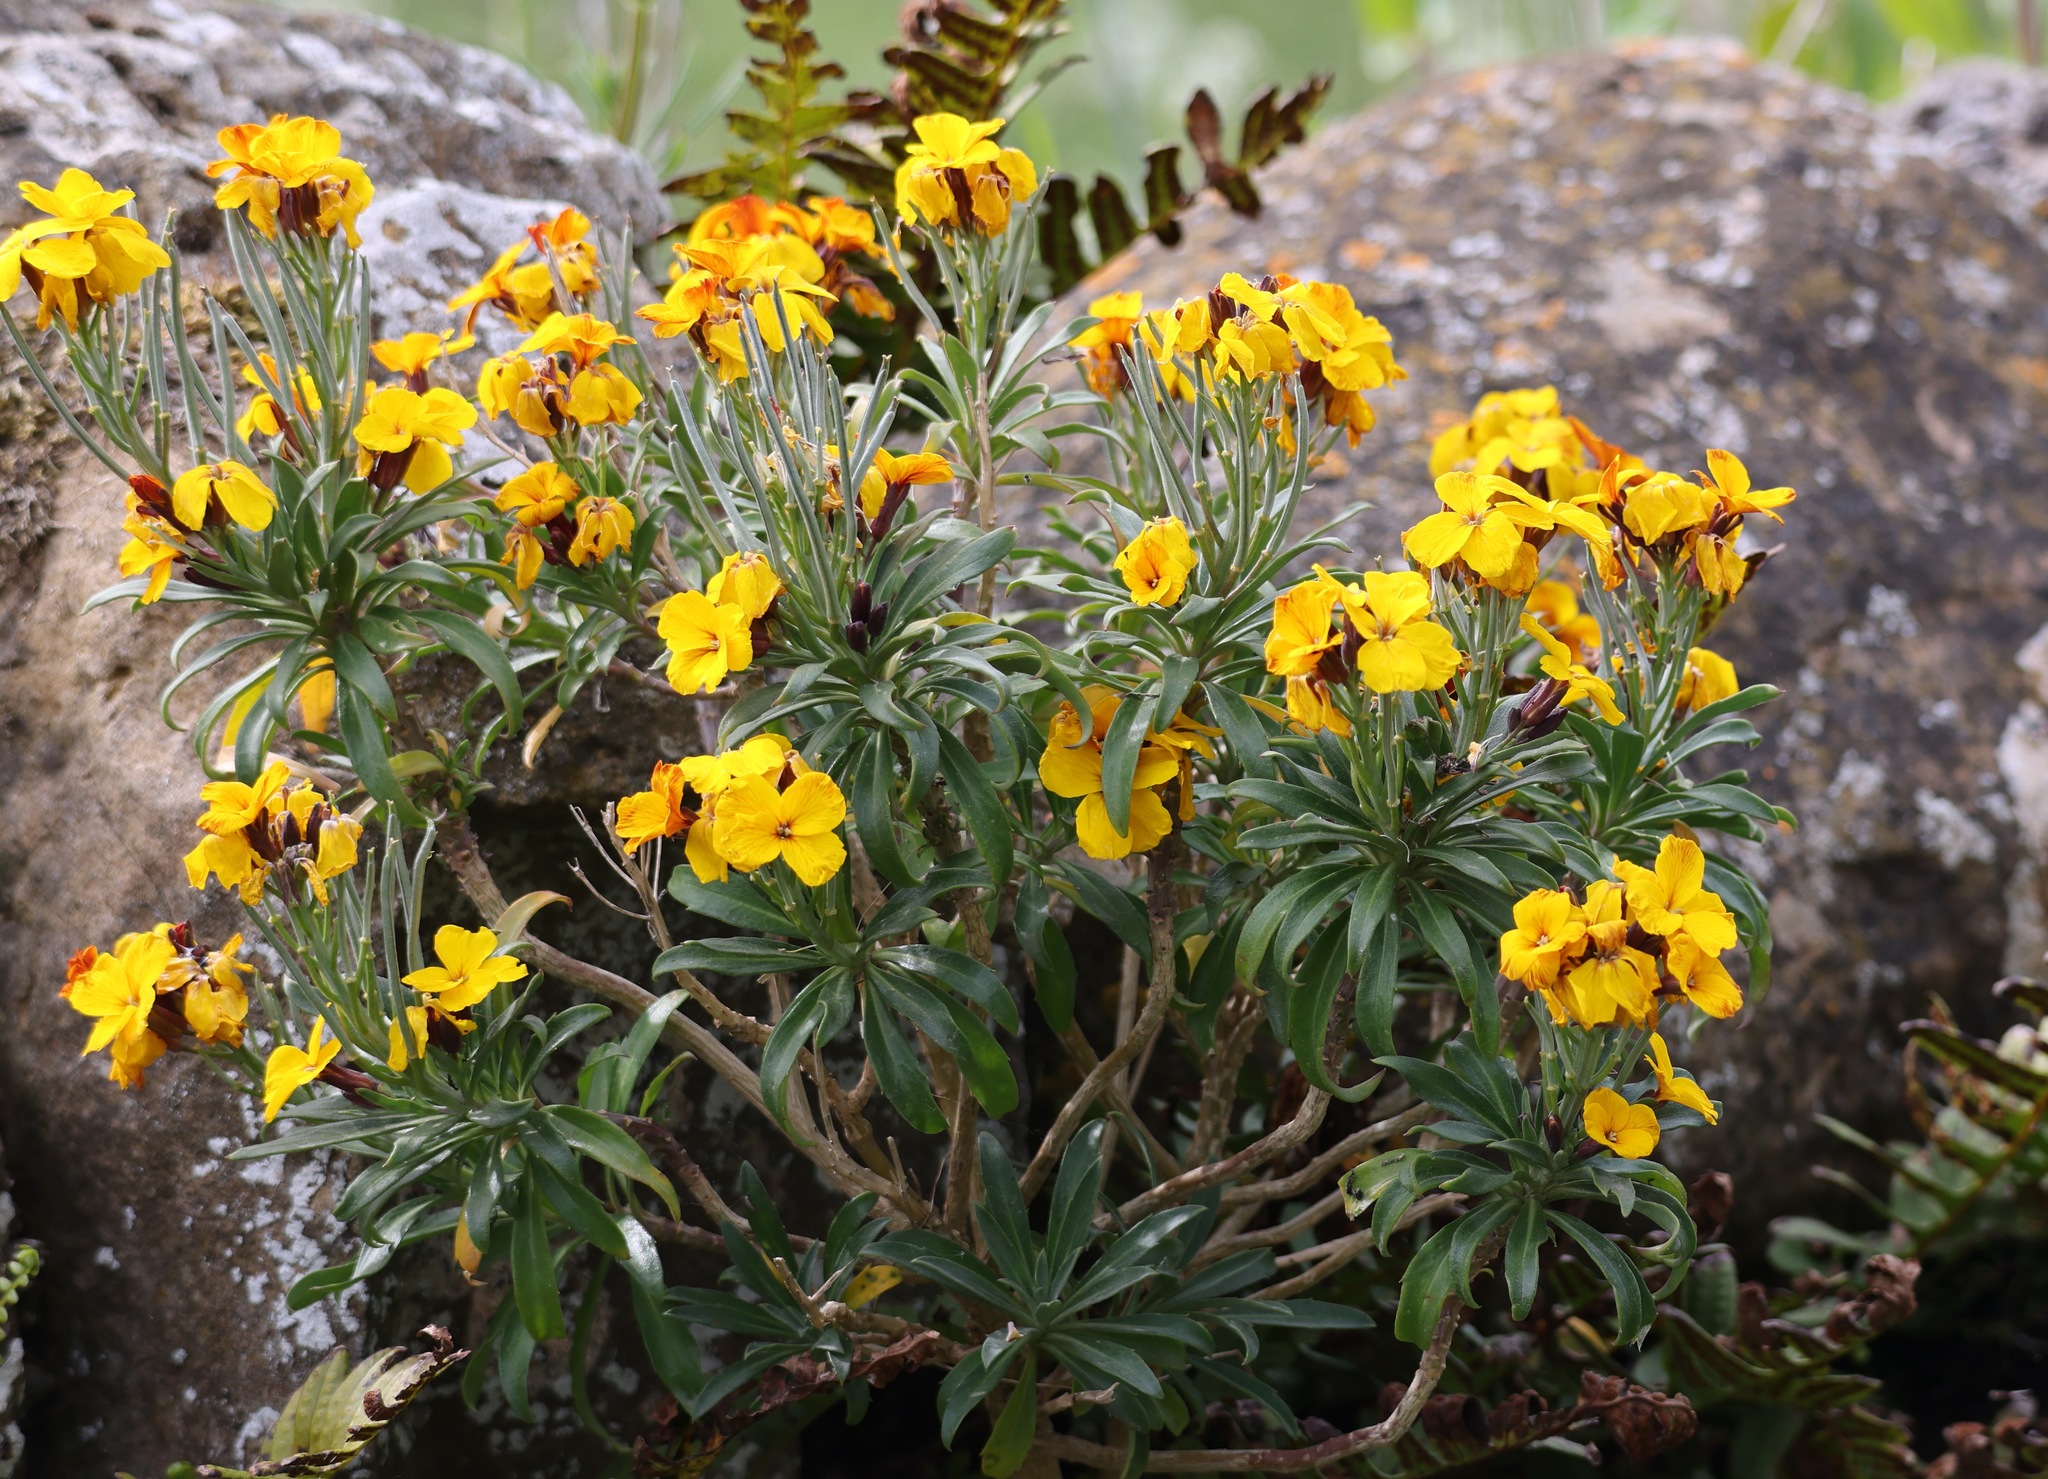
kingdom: Plantae
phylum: Tracheophyta
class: Magnoliopsida
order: Brassicales
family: Brassicaceae
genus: Erysimum
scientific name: Erysimum cheiri
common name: Wallflower
